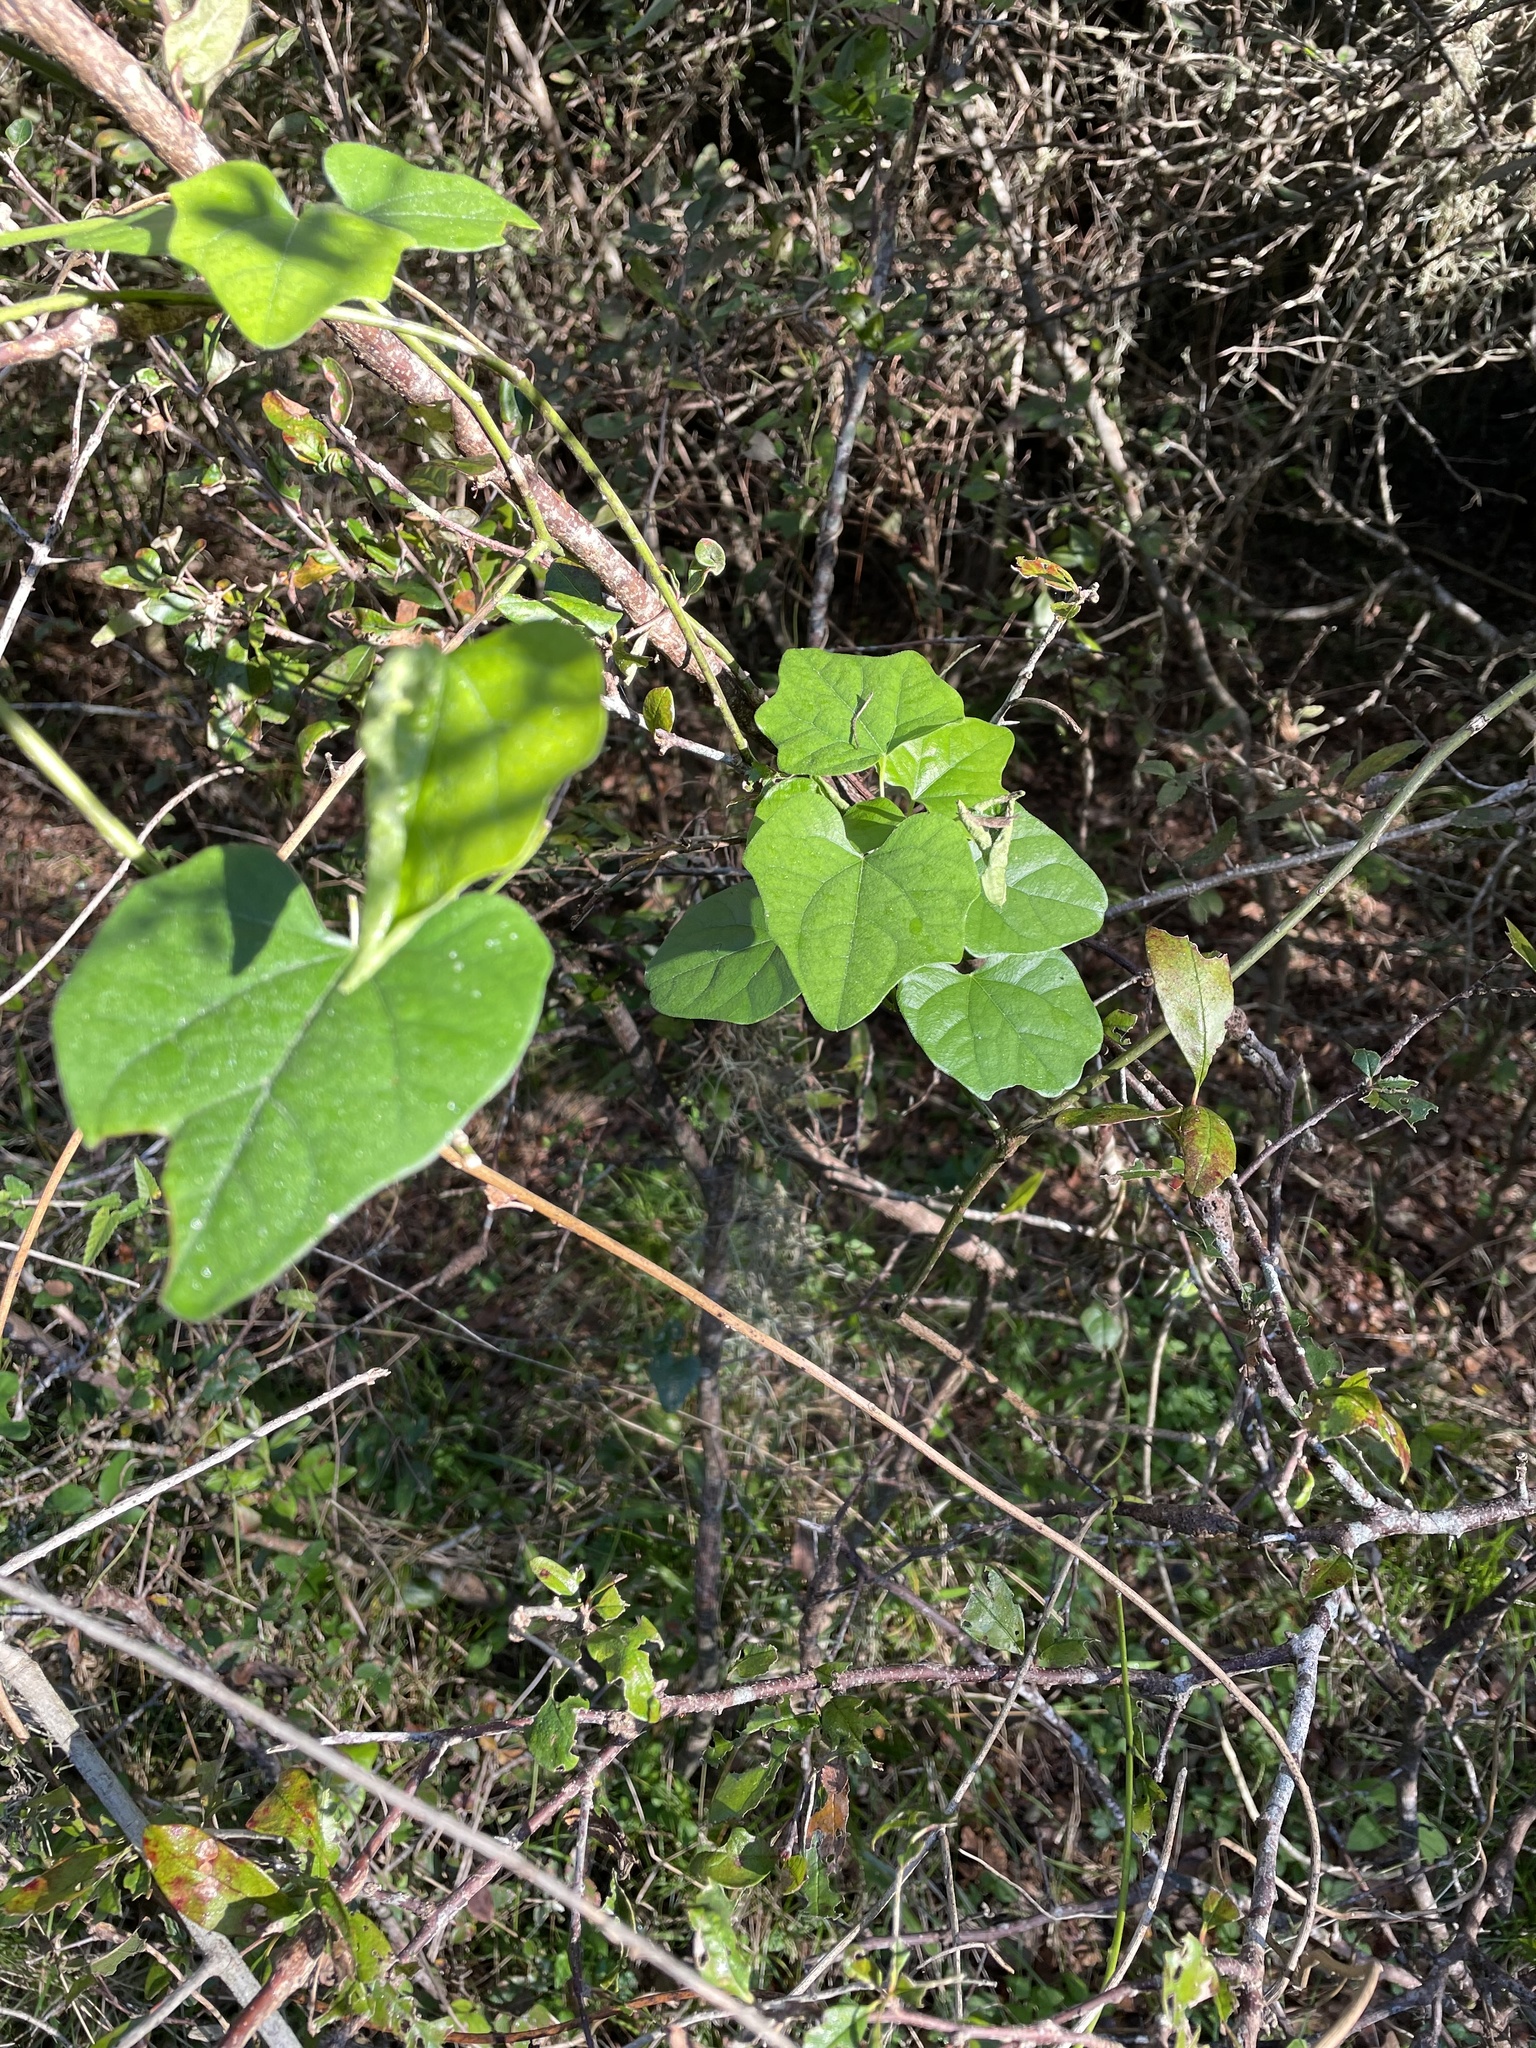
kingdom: Plantae
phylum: Tracheophyta
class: Magnoliopsida
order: Ranunculales
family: Menispermaceae
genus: Cocculus
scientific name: Cocculus carolinus
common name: Carolina moonseed
